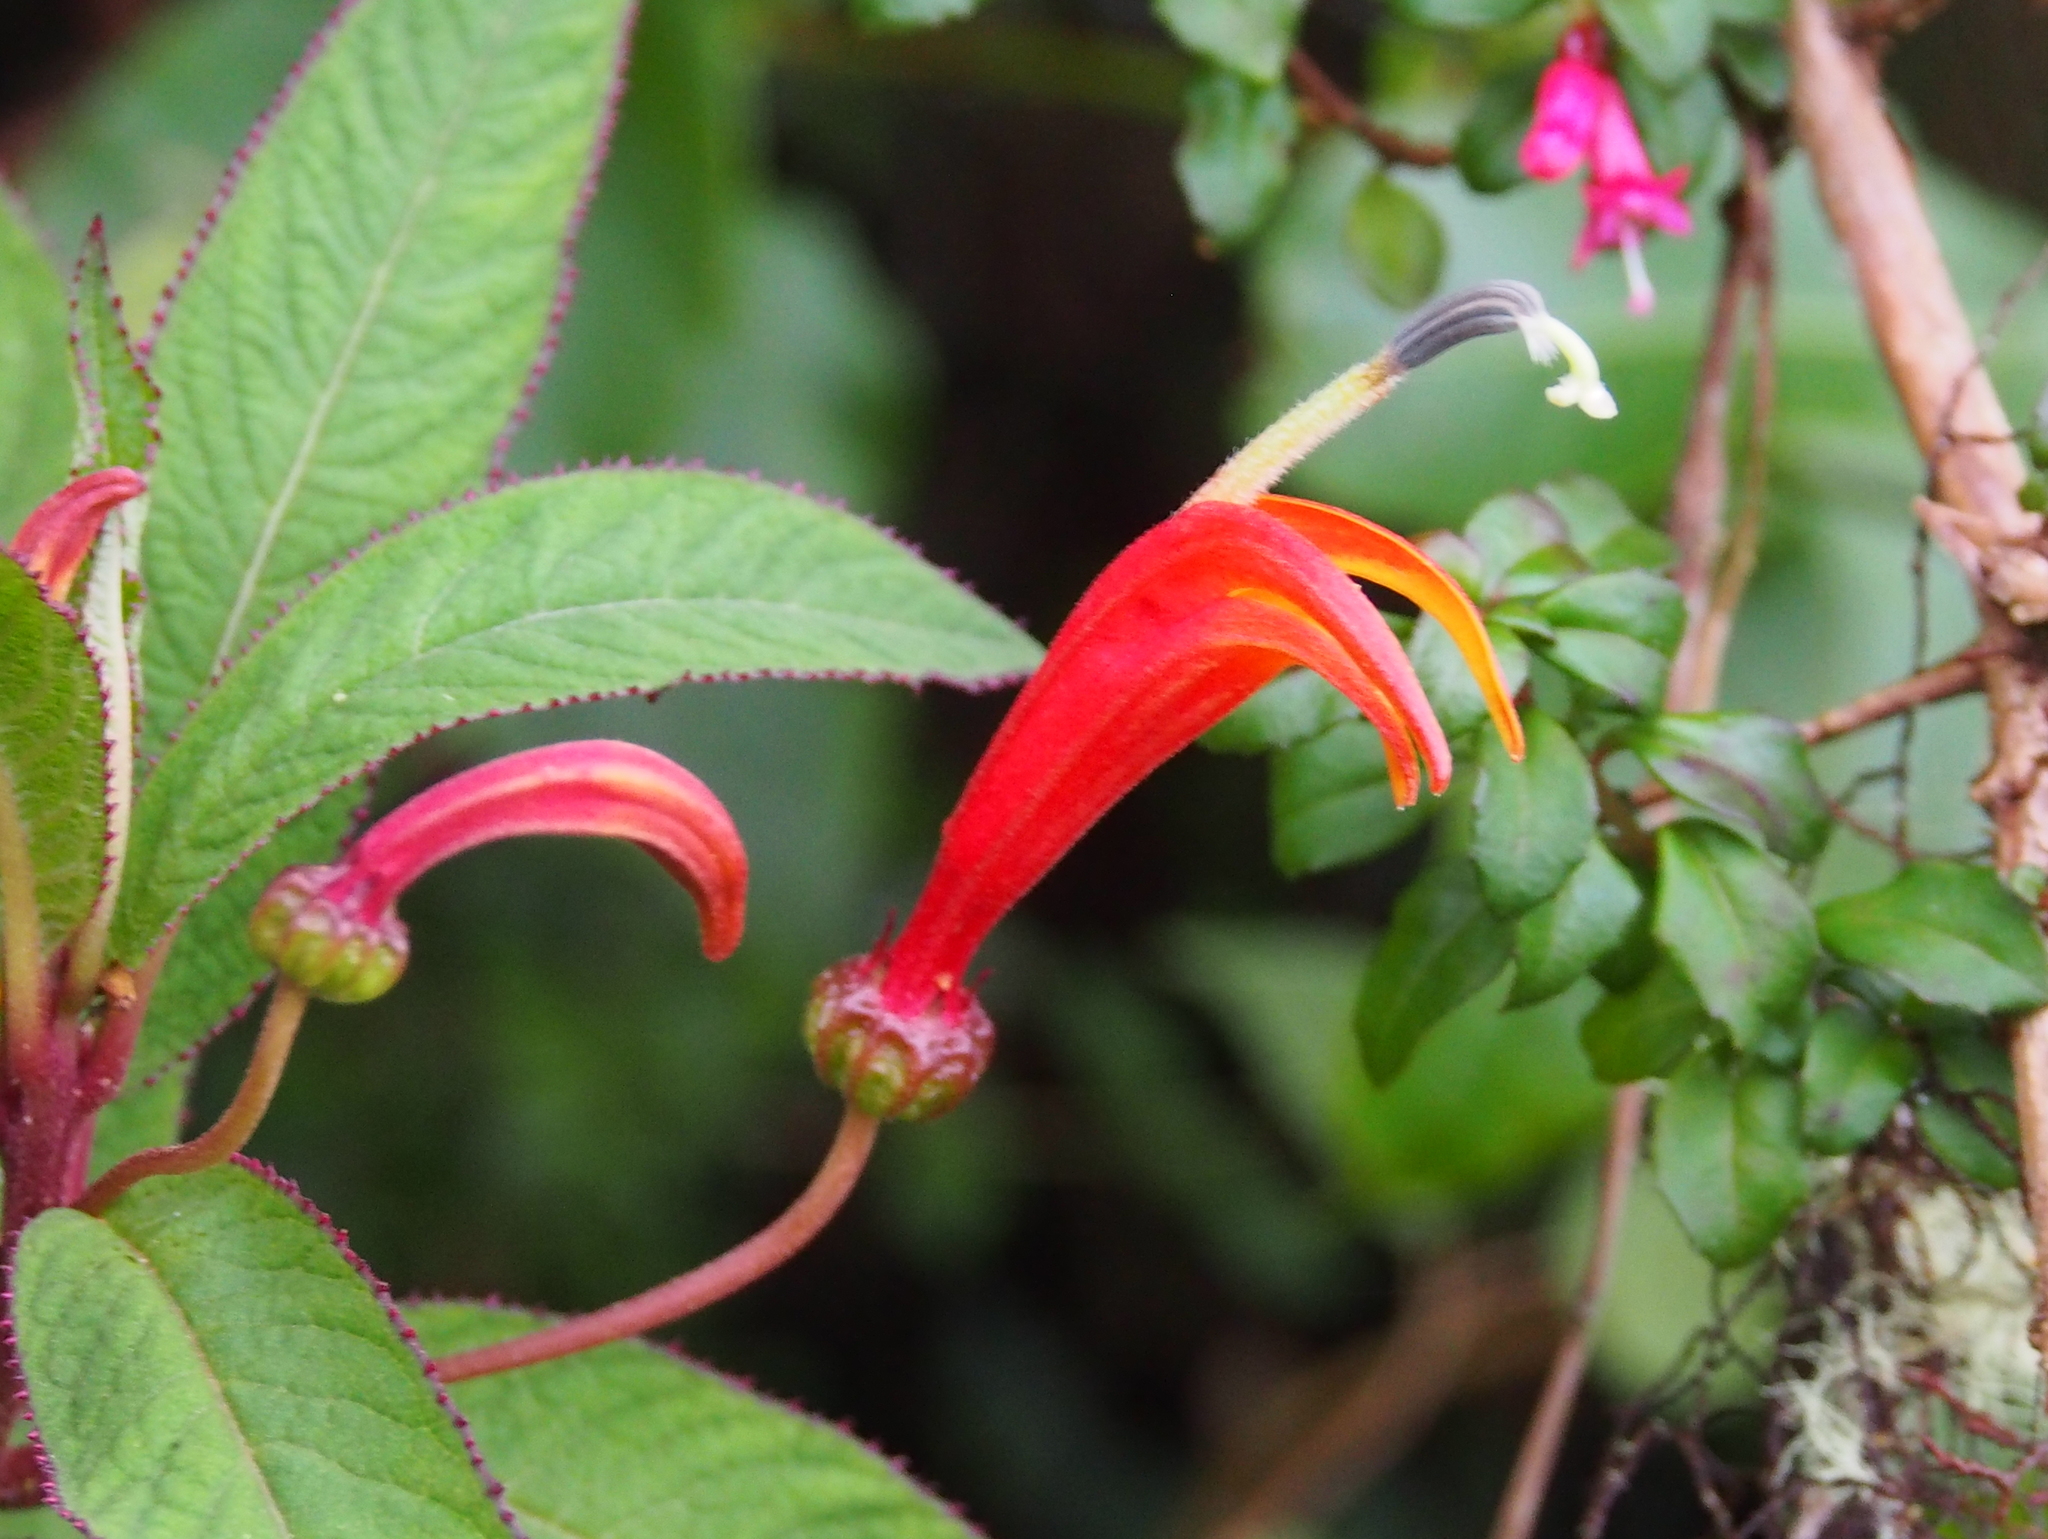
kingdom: Plantae
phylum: Tracheophyta
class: Magnoliopsida
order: Asterales
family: Campanulaceae
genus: Centropogon
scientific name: Centropogon valerii
